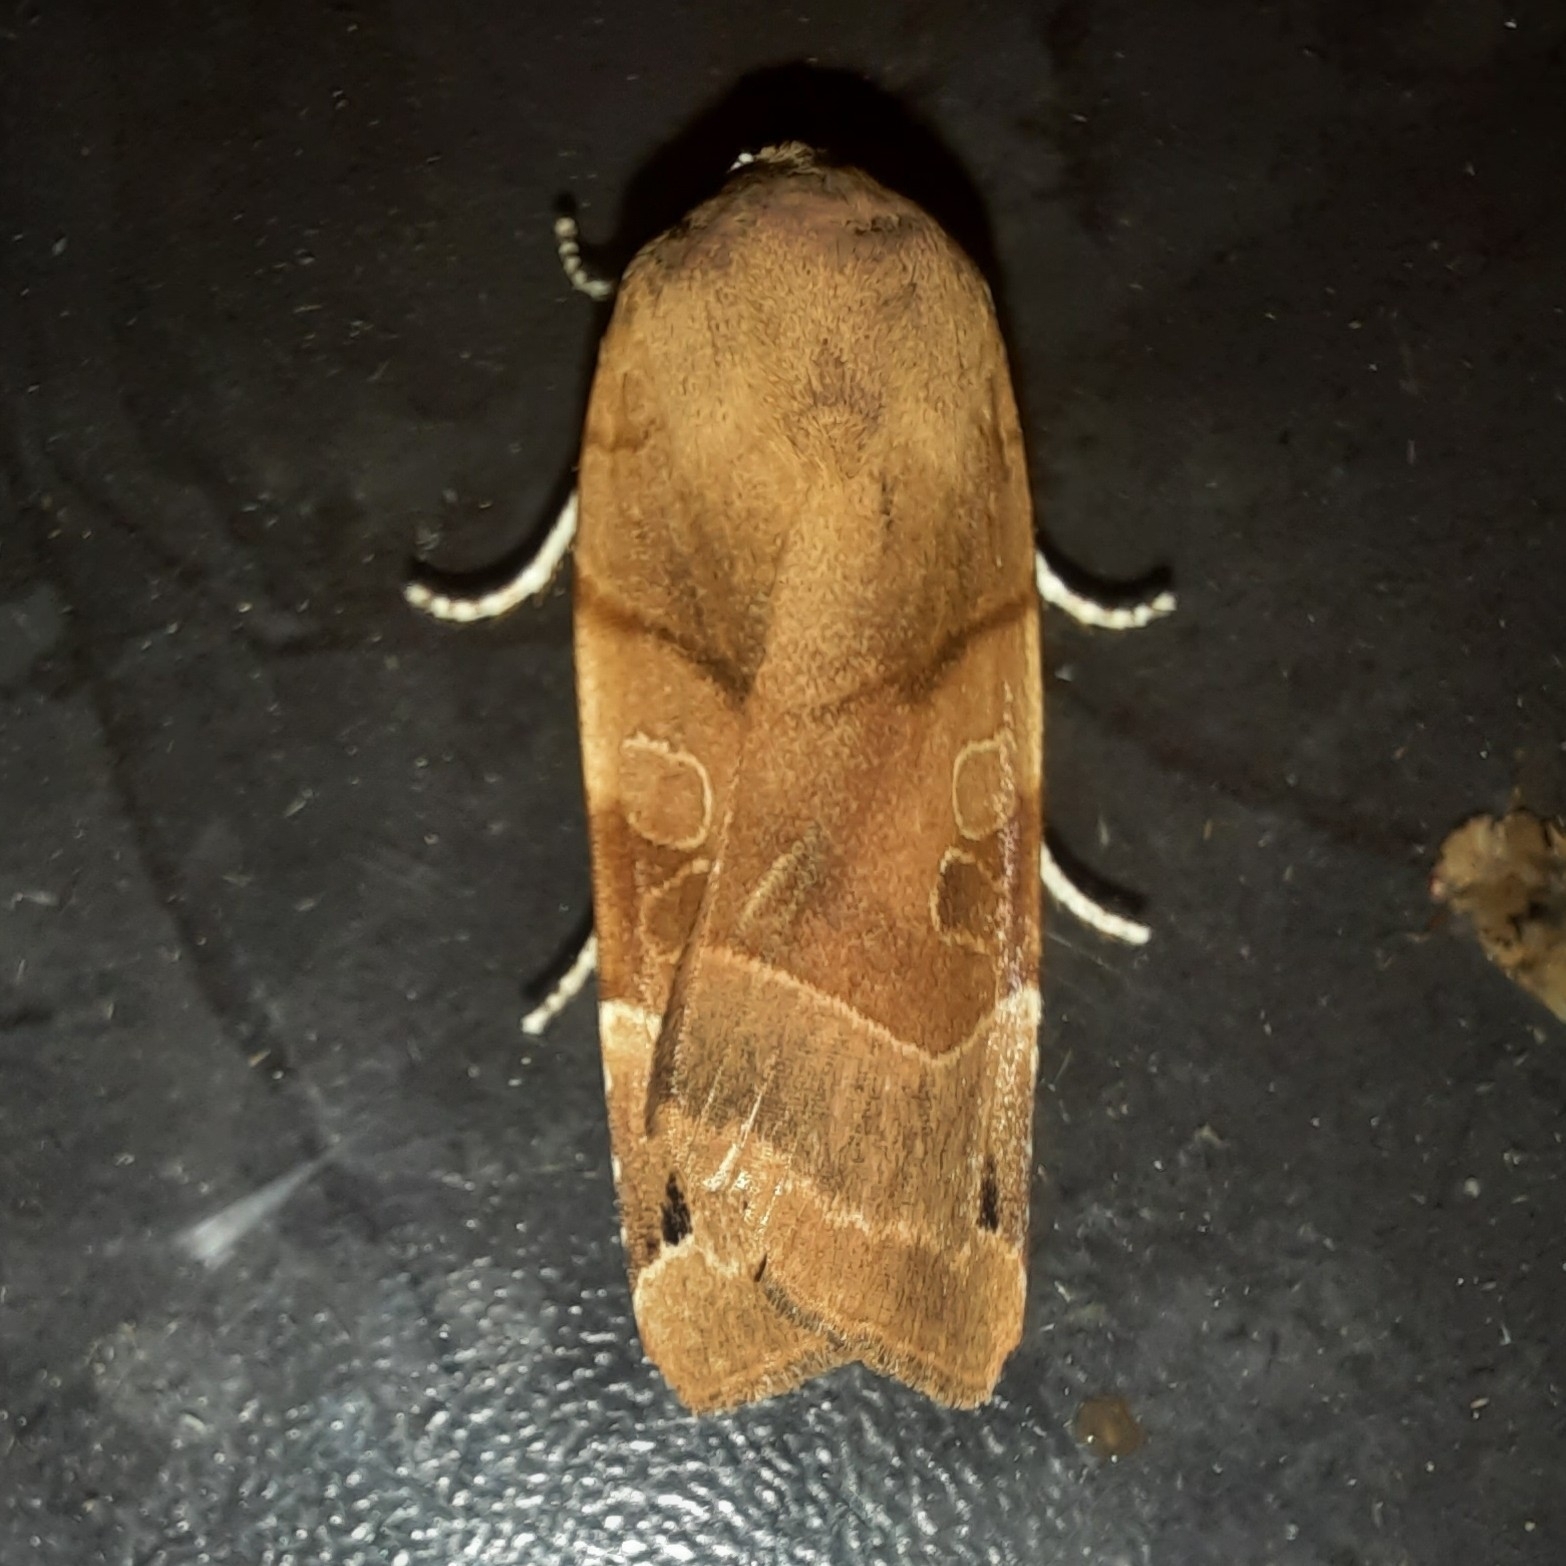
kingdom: Animalia
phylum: Arthropoda
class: Insecta
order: Lepidoptera
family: Noctuidae
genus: Noctua
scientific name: Noctua fimbriata
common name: Broad-bordered yellow underwing
